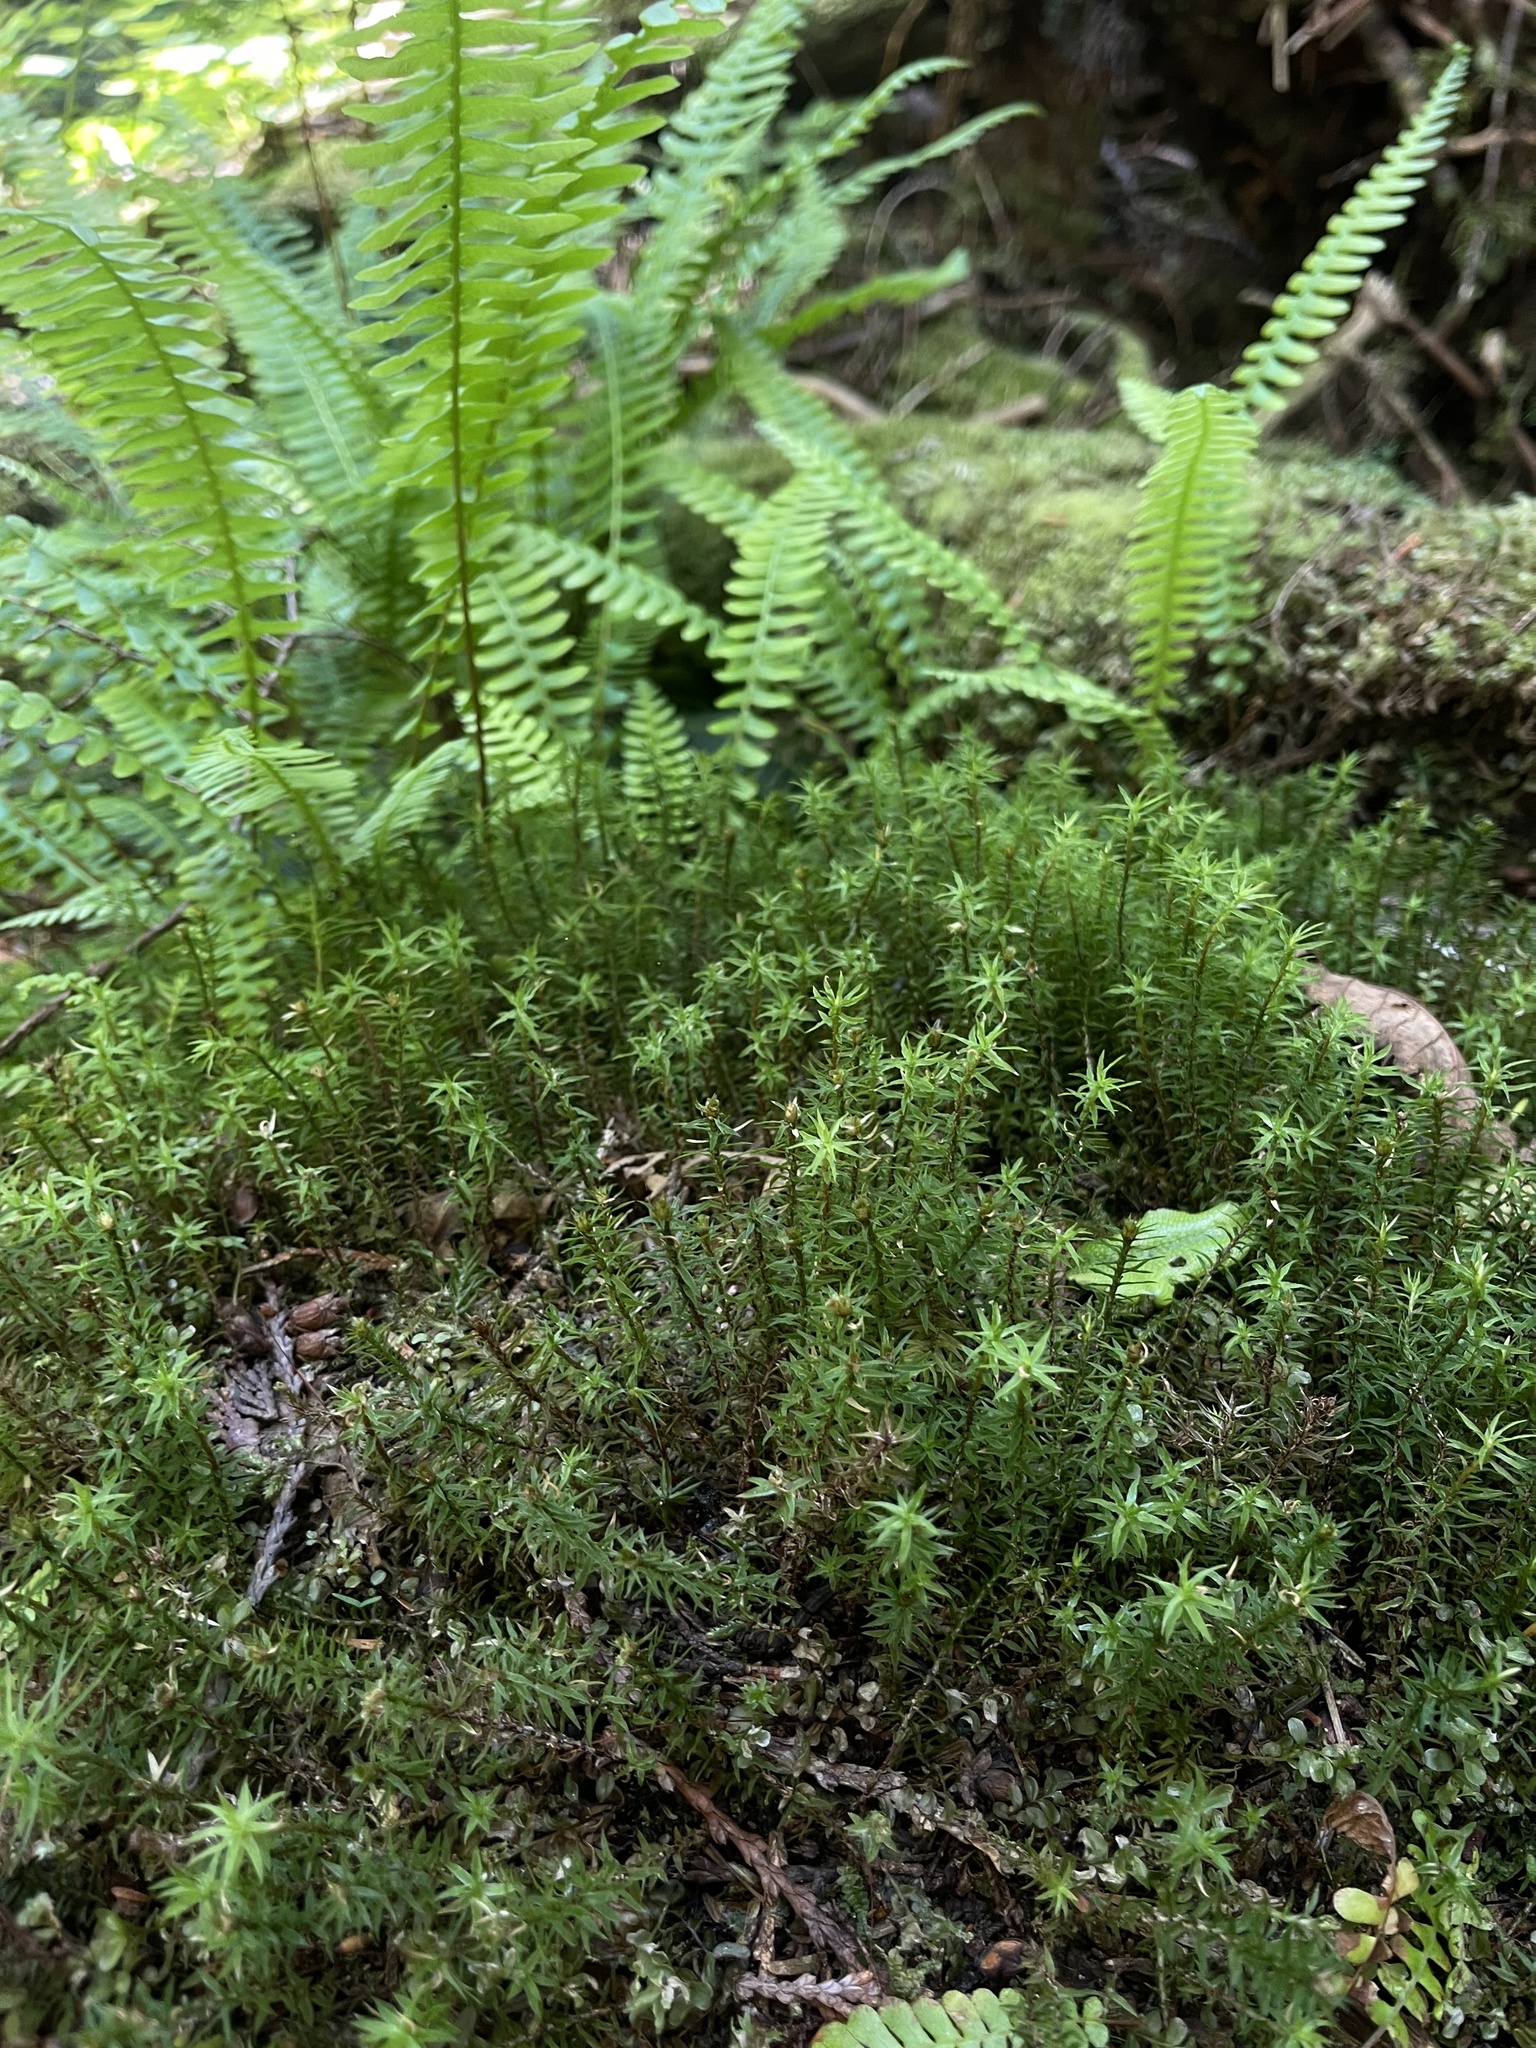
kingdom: Plantae
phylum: Bryophyta
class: Polytrichopsida
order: Polytrichales
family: Polytrichaceae
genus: Pogonatum
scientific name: Pogonatum contortum
